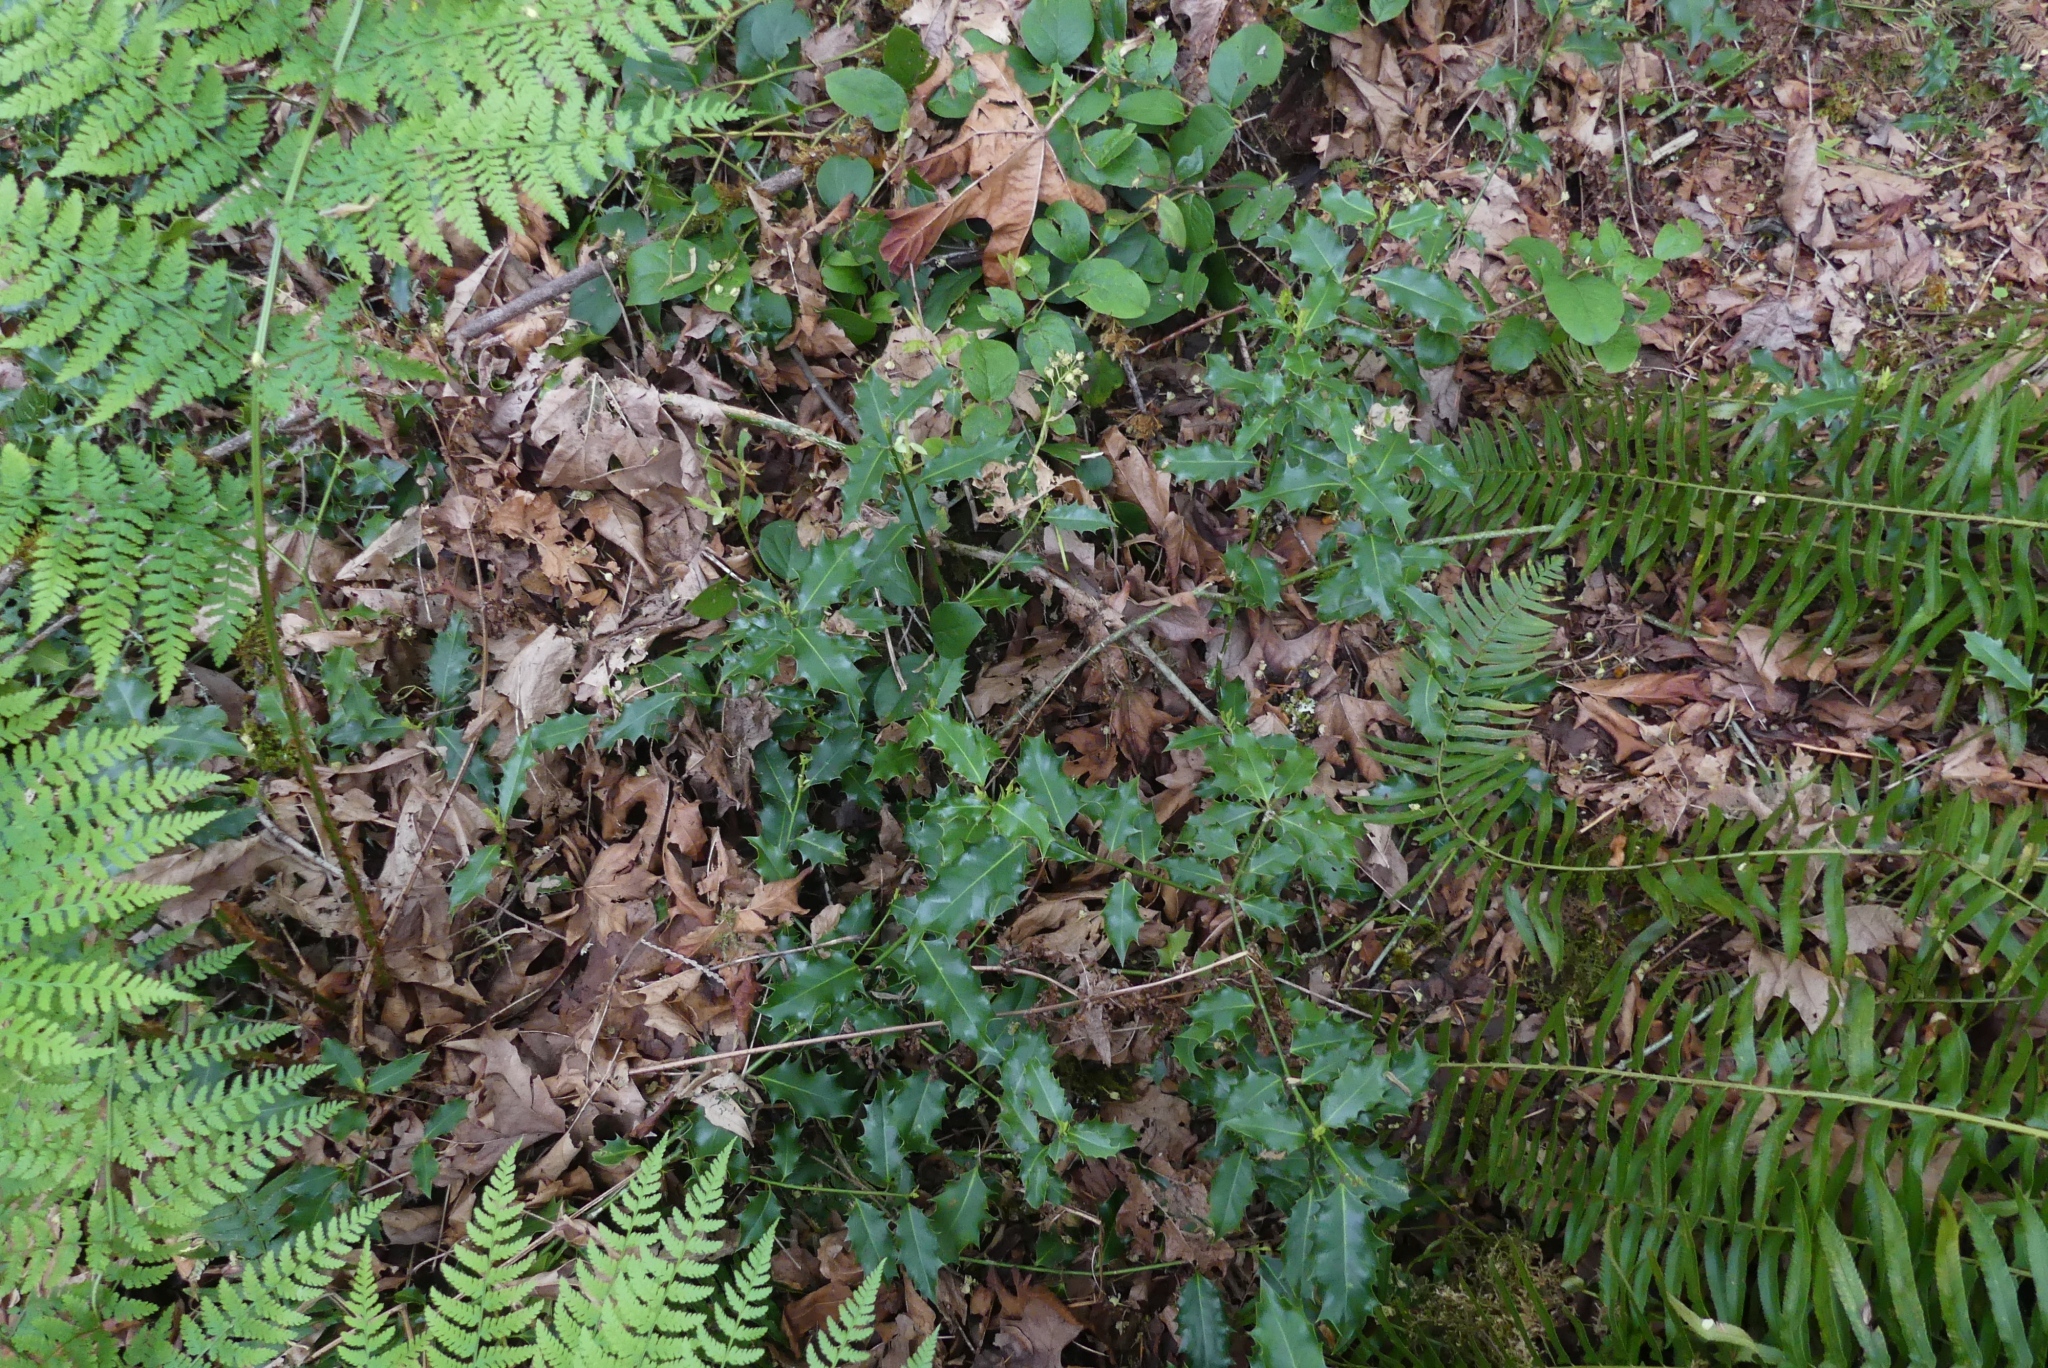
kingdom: Plantae
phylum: Tracheophyta
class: Magnoliopsida
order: Aquifoliales
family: Aquifoliaceae
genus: Ilex
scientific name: Ilex aquifolium
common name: English holly
